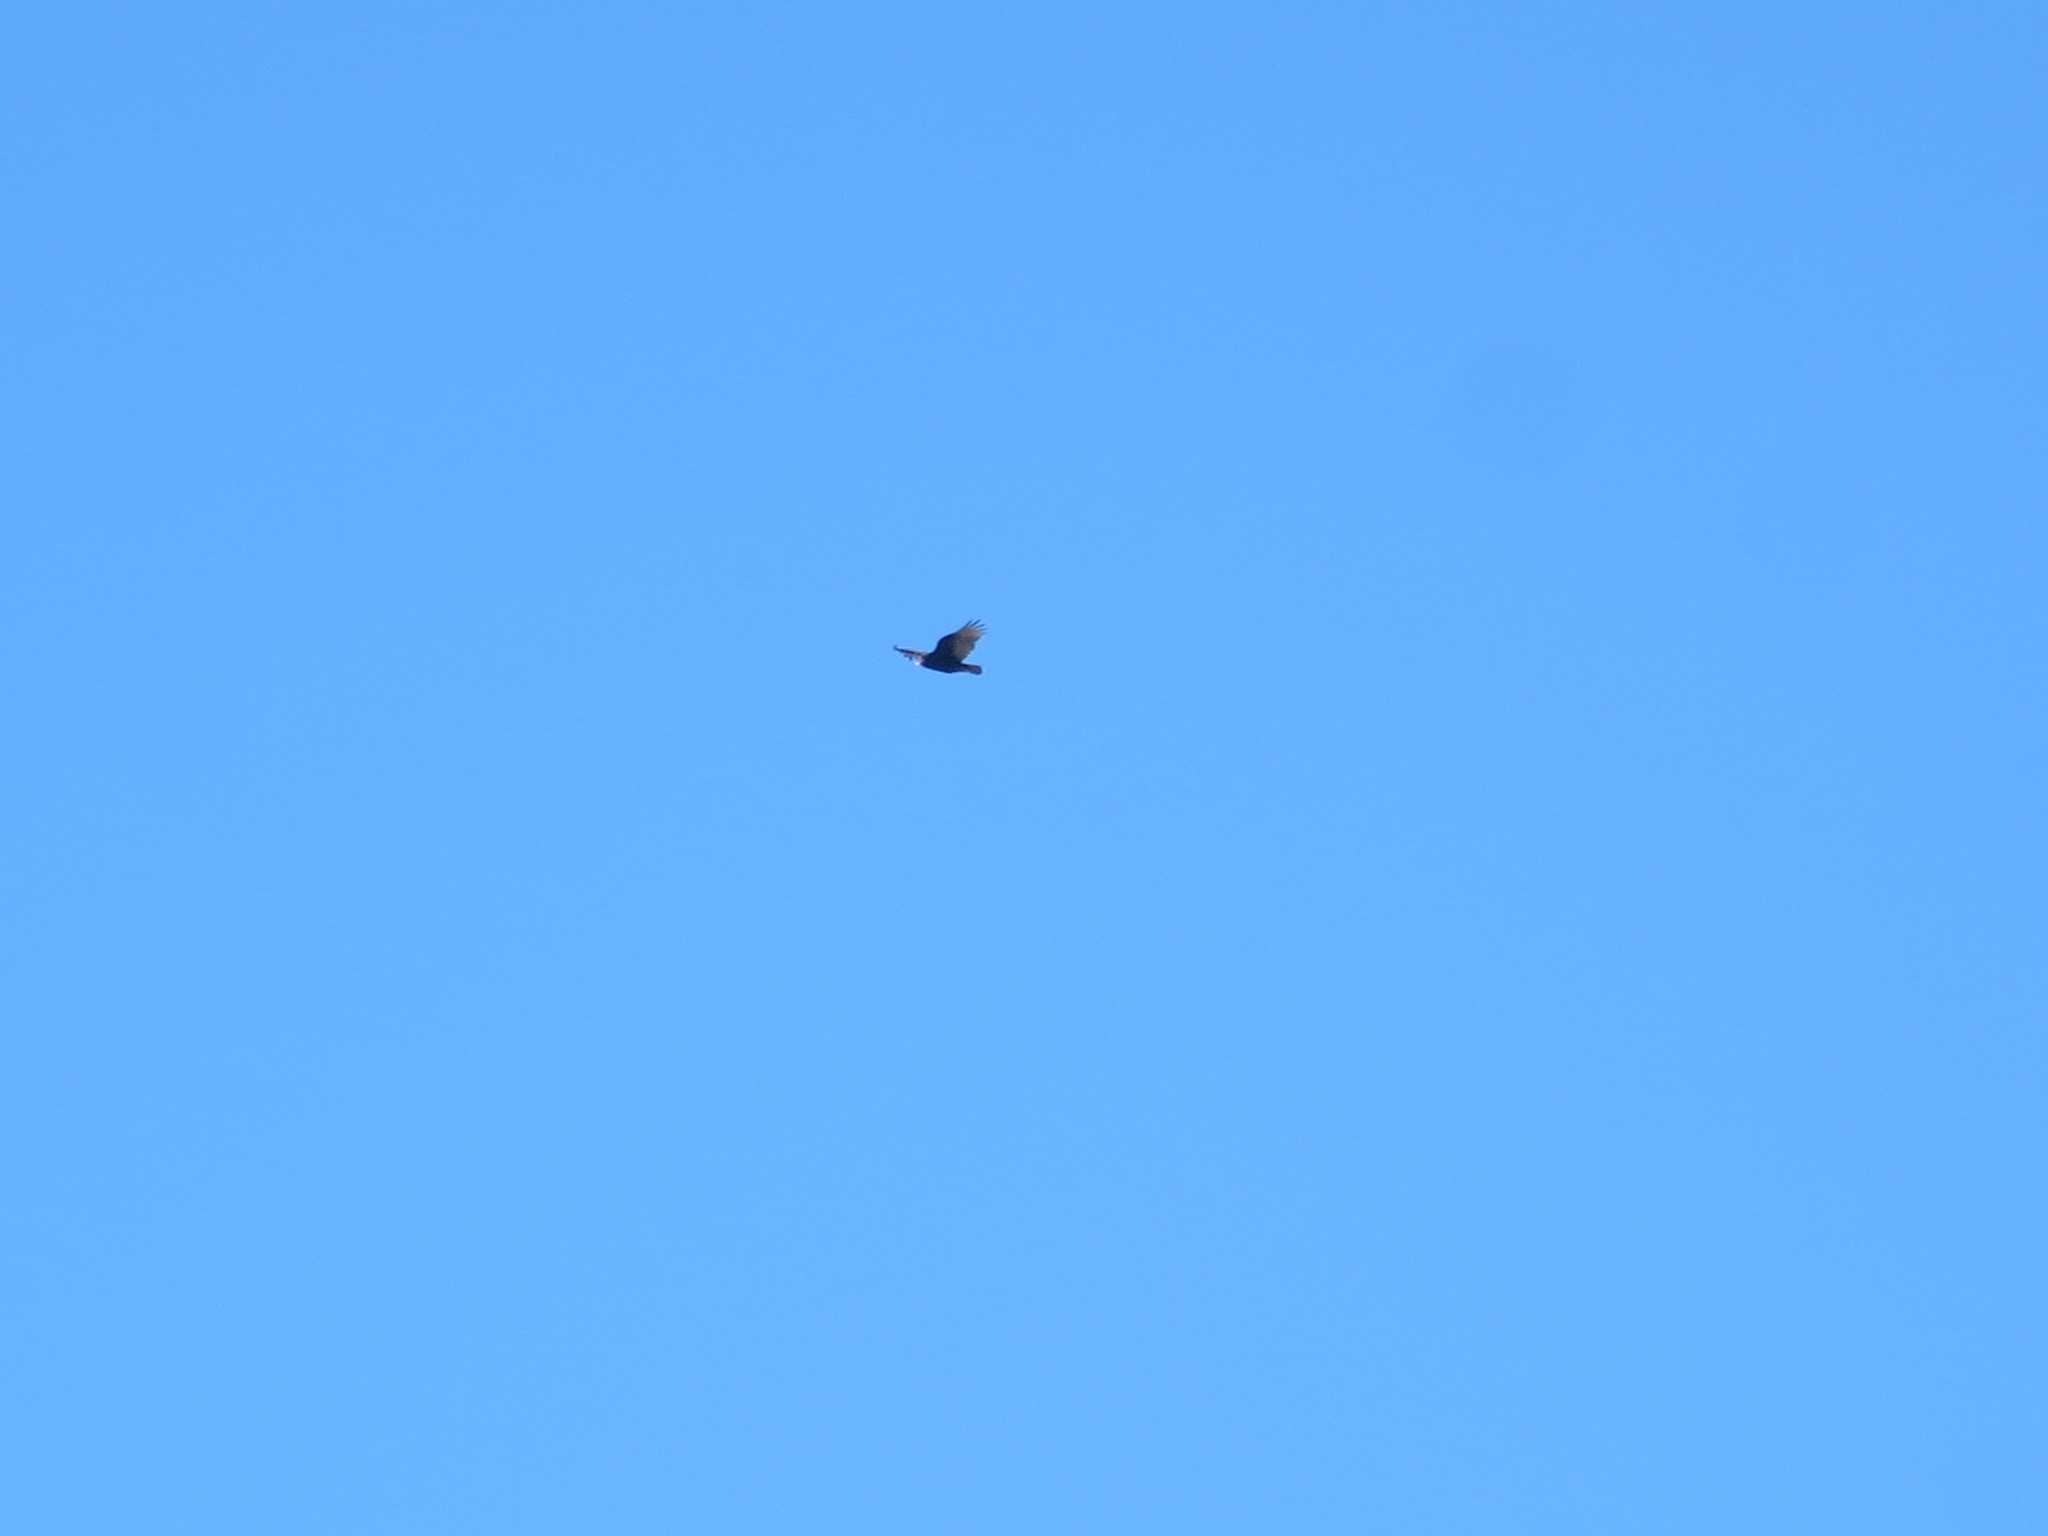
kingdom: Animalia
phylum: Chordata
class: Aves
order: Accipitriformes
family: Cathartidae
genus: Cathartes
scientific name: Cathartes aura
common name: Turkey vulture
